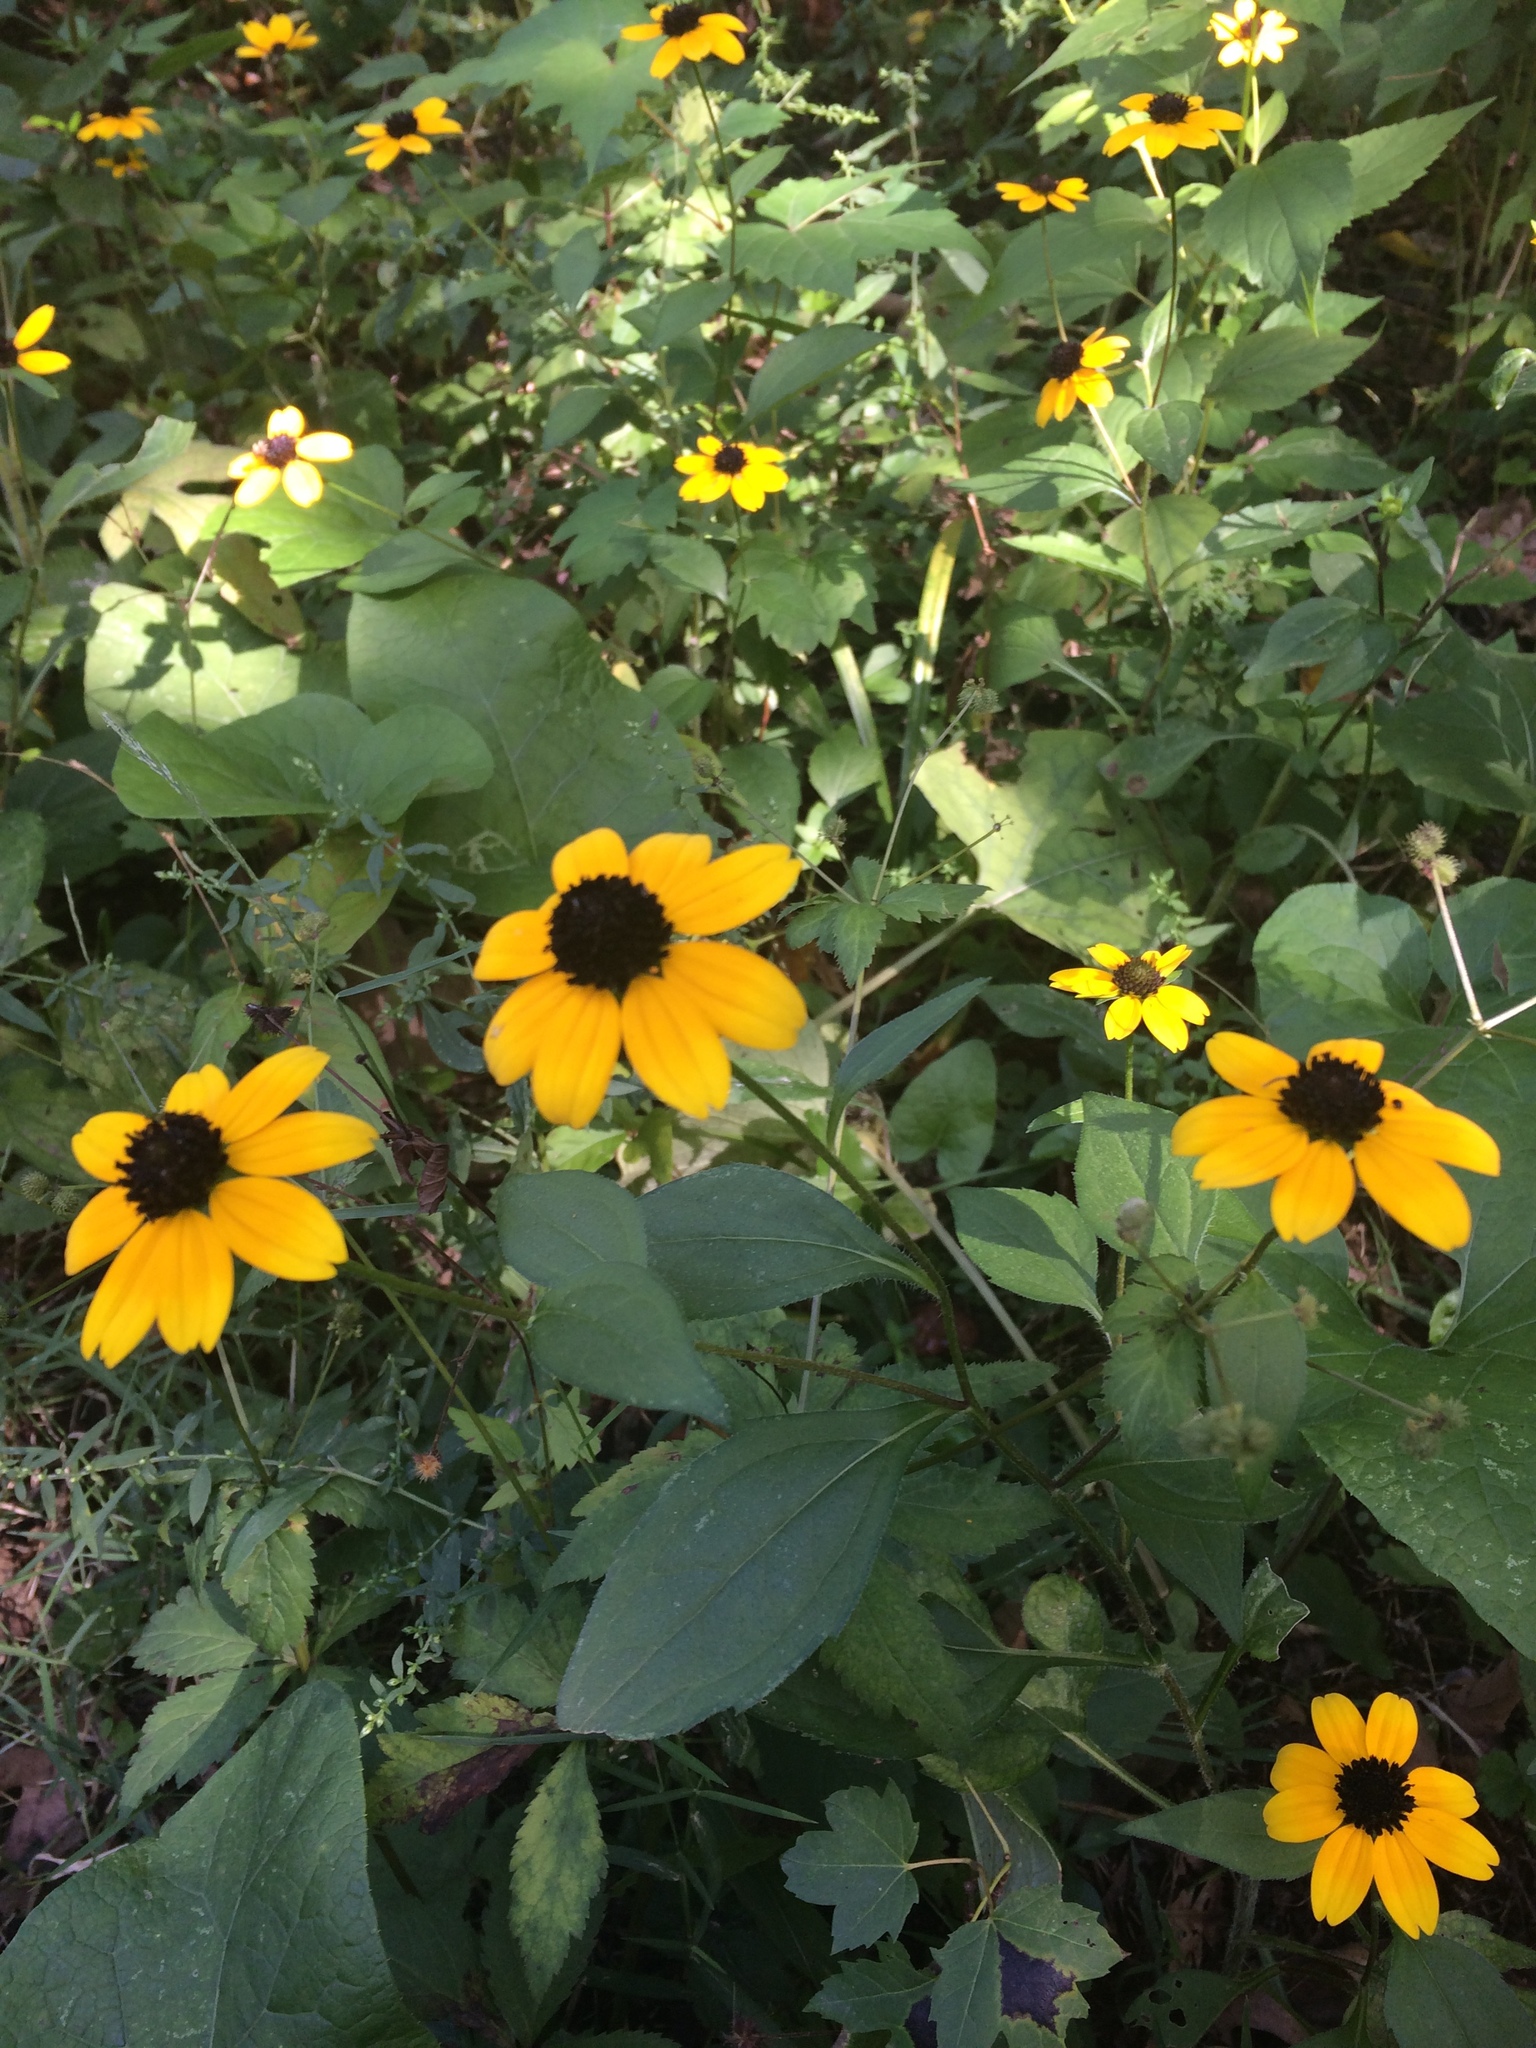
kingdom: Plantae
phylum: Tracheophyta
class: Magnoliopsida
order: Asterales
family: Asteraceae
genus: Rudbeckia
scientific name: Rudbeckia triloba
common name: Thin-leaved coneflower
